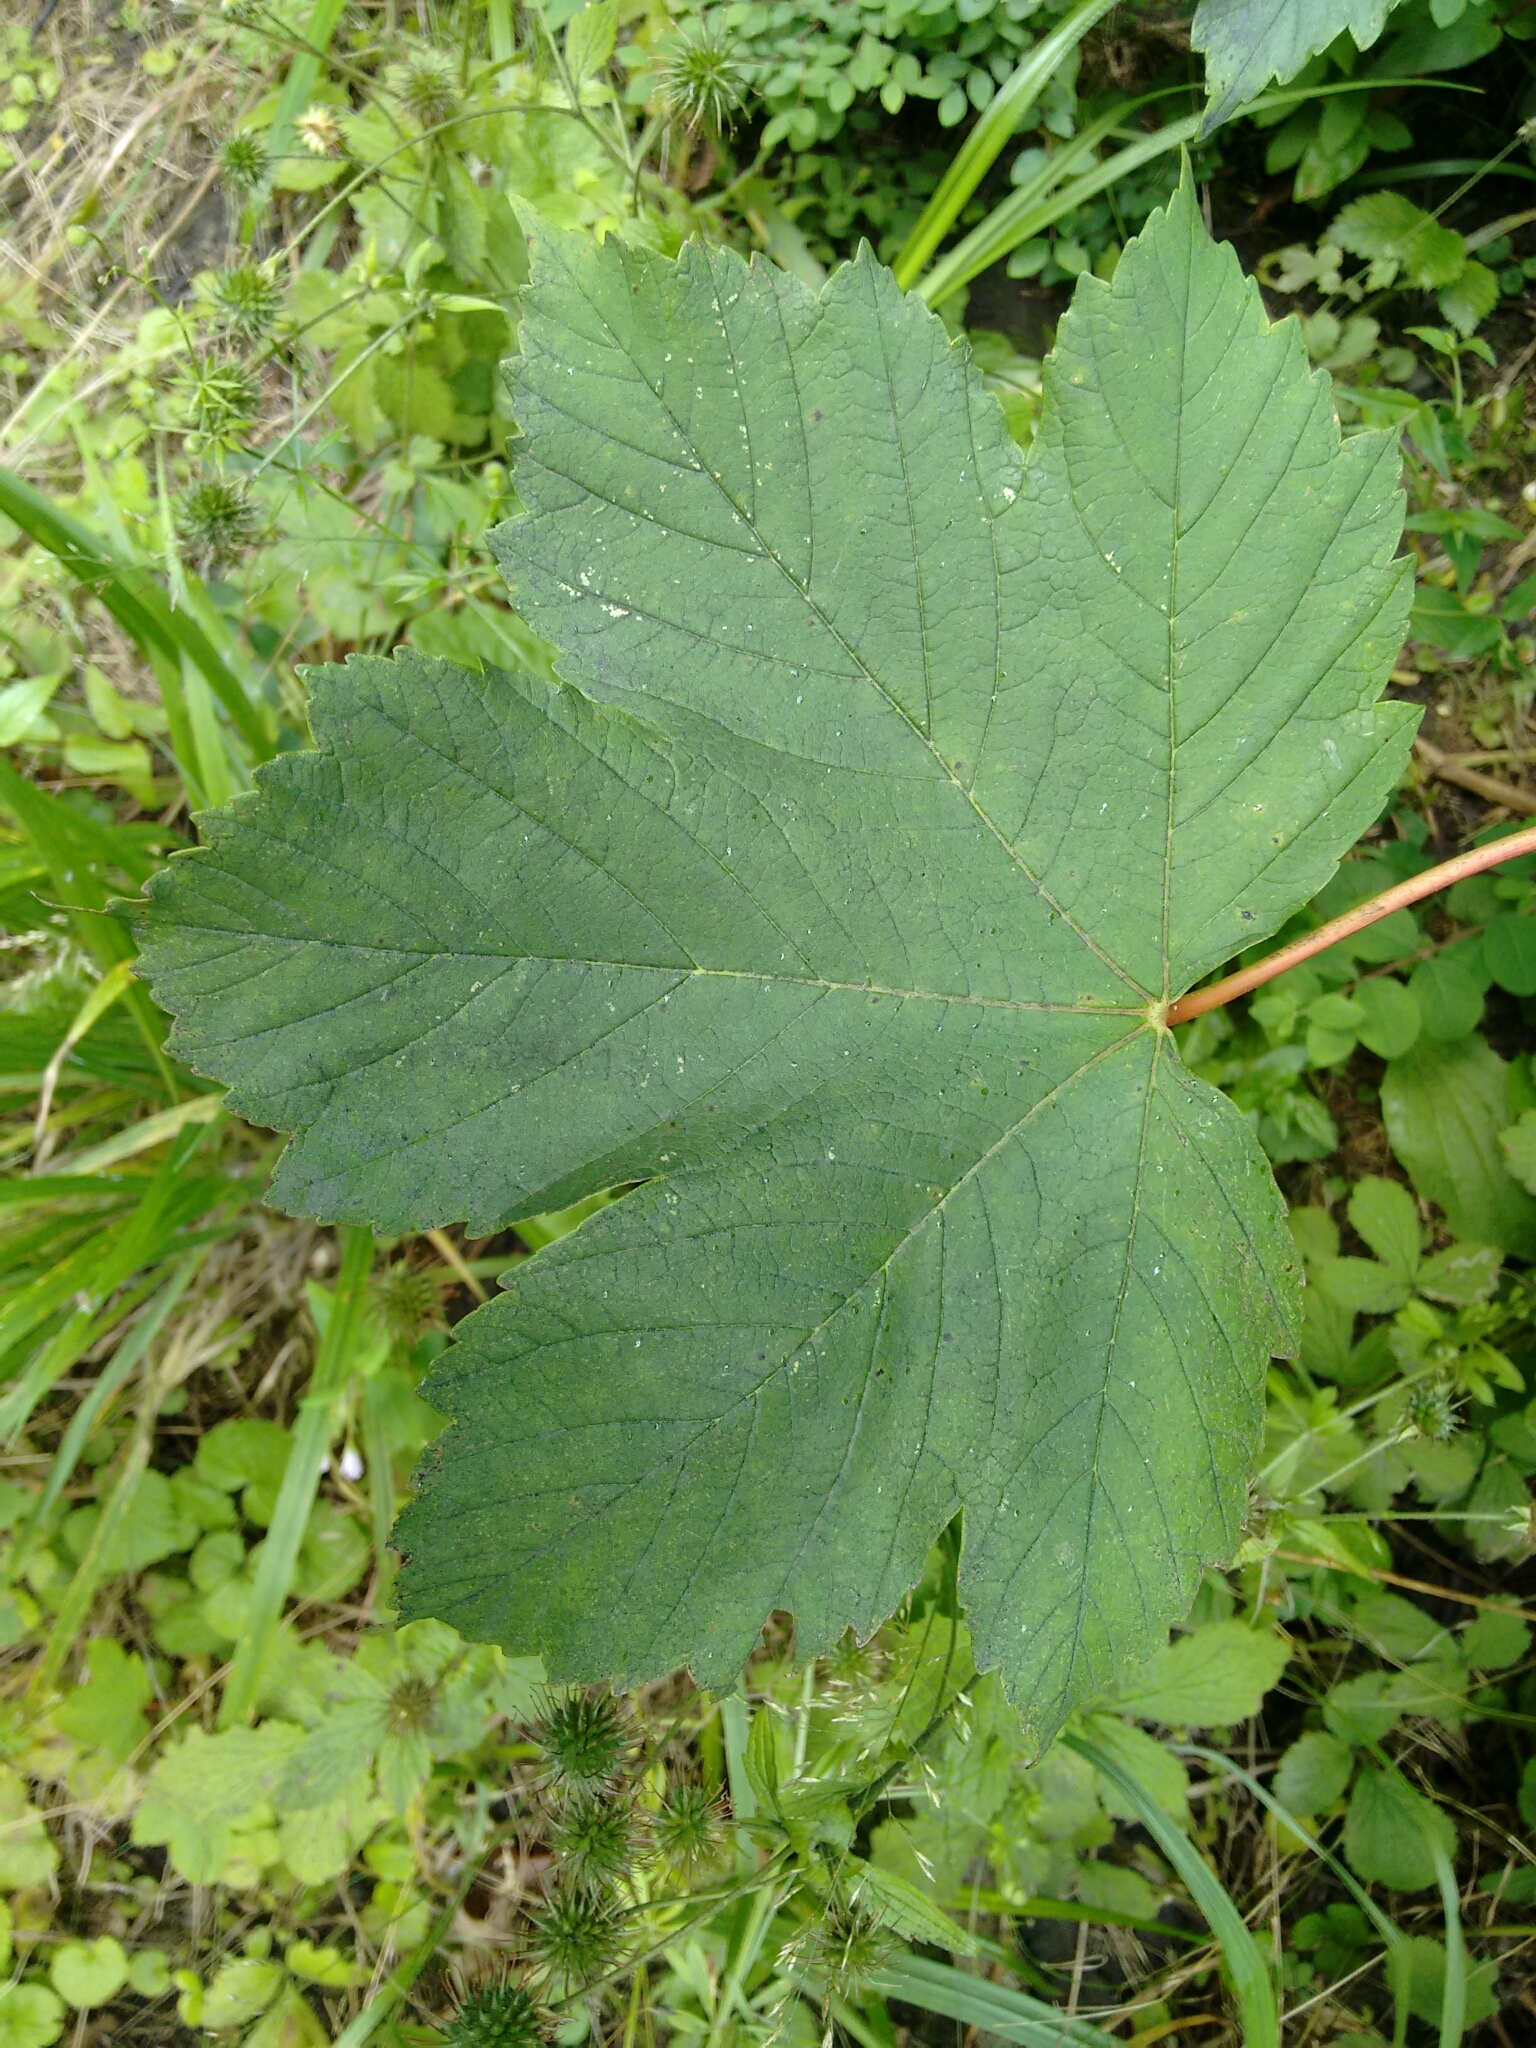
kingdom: Plantae
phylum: Tracheophyta
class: Magnoliopsida
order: Sapindales
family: Sapindaceae
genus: Acer
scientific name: Acer pseudoplatanus
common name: Sycamore
